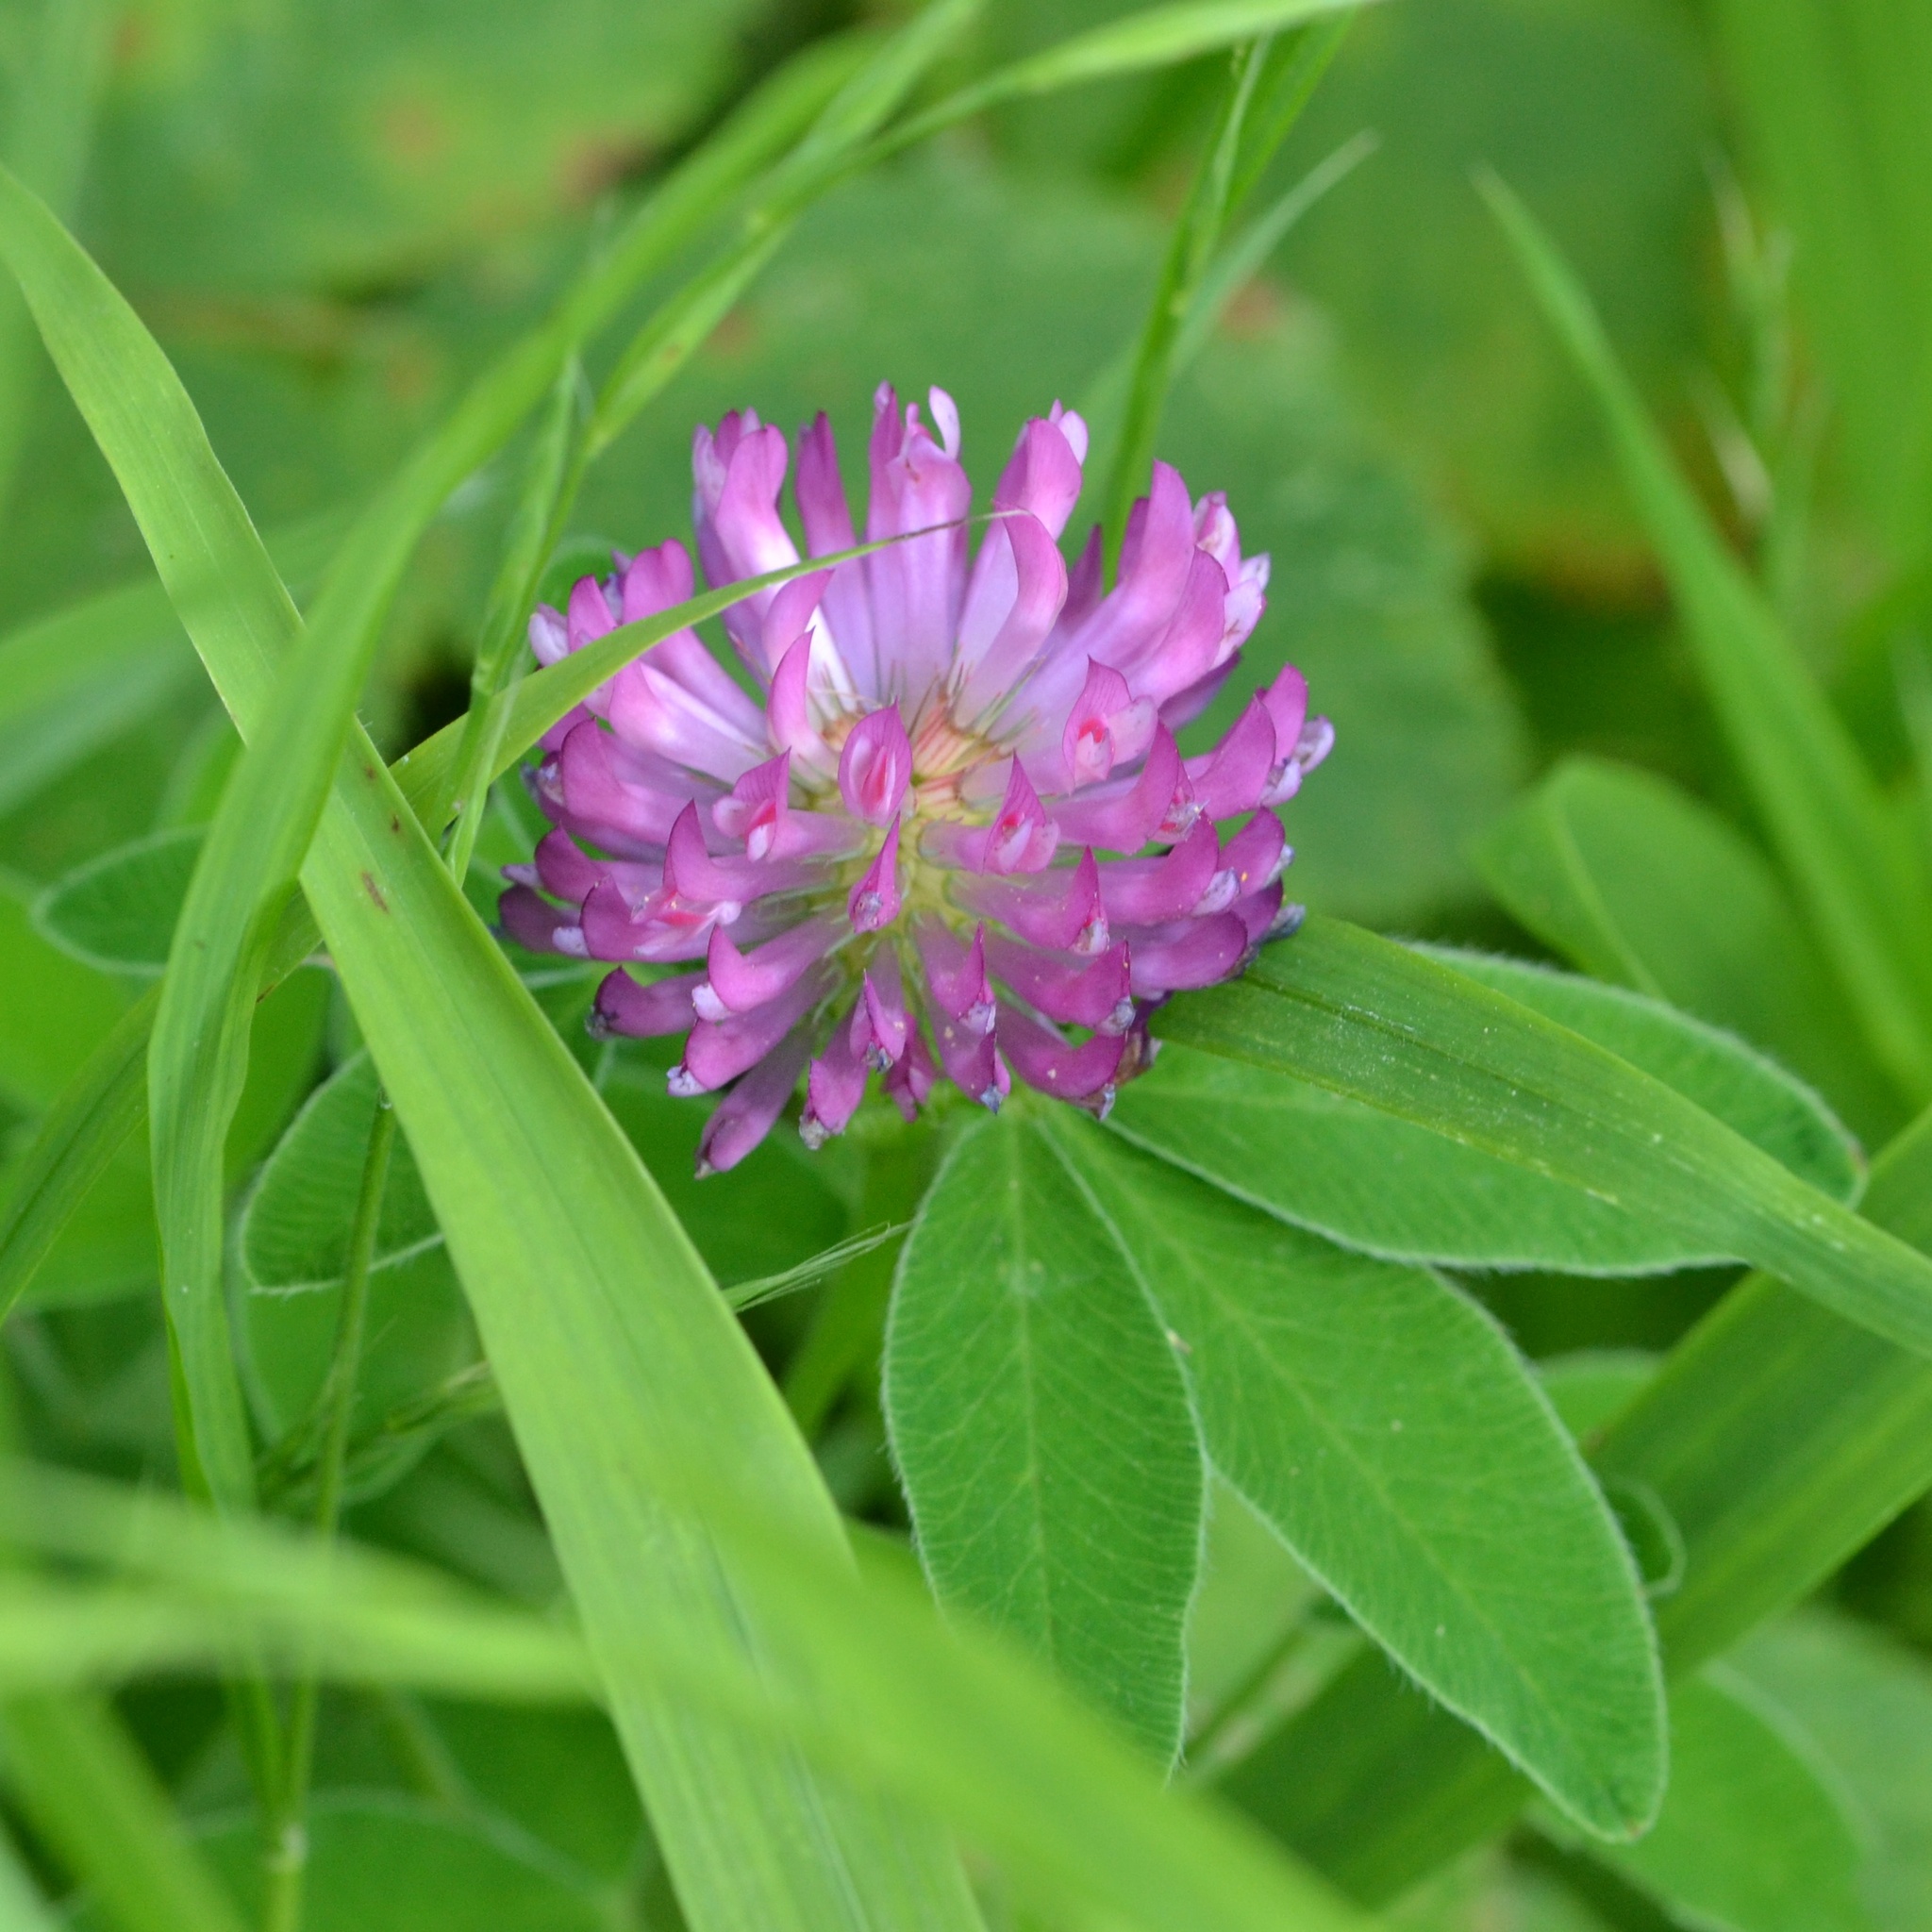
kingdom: Plantae
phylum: Tracheophyta
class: Magnoliopsida
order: Fabales
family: Fabaceae
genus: Trifolium
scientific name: Trifolium medium
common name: Zigzag clover
